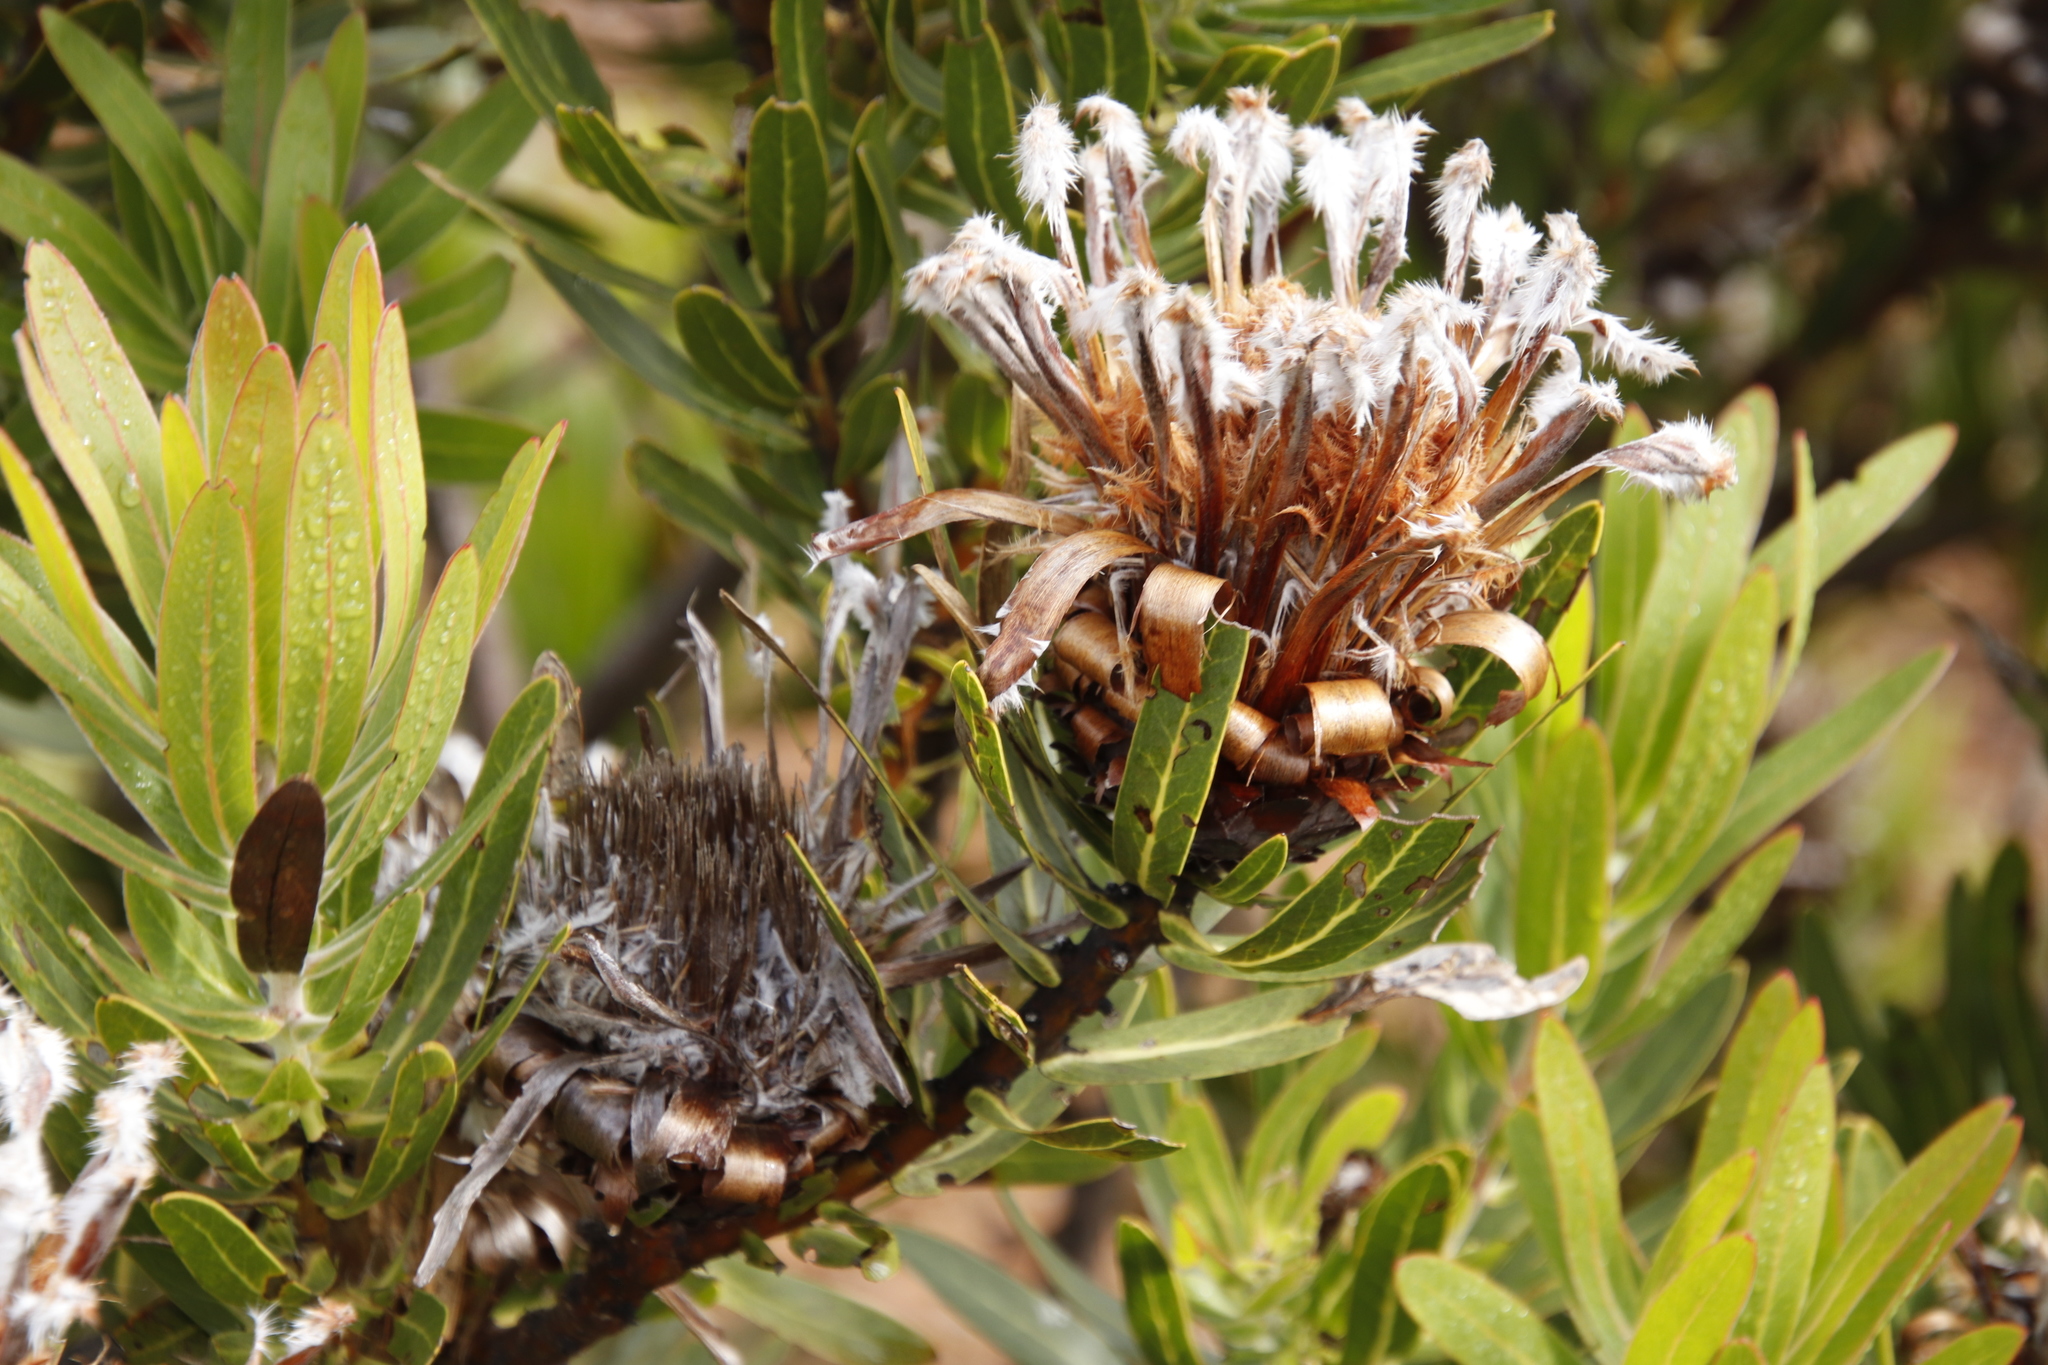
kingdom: Plantae
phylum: Tracheophyta
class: Magnoliopsida
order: Proteales
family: Proteaceae
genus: Protea
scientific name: Protea neriifolia
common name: Blue sugarbush
